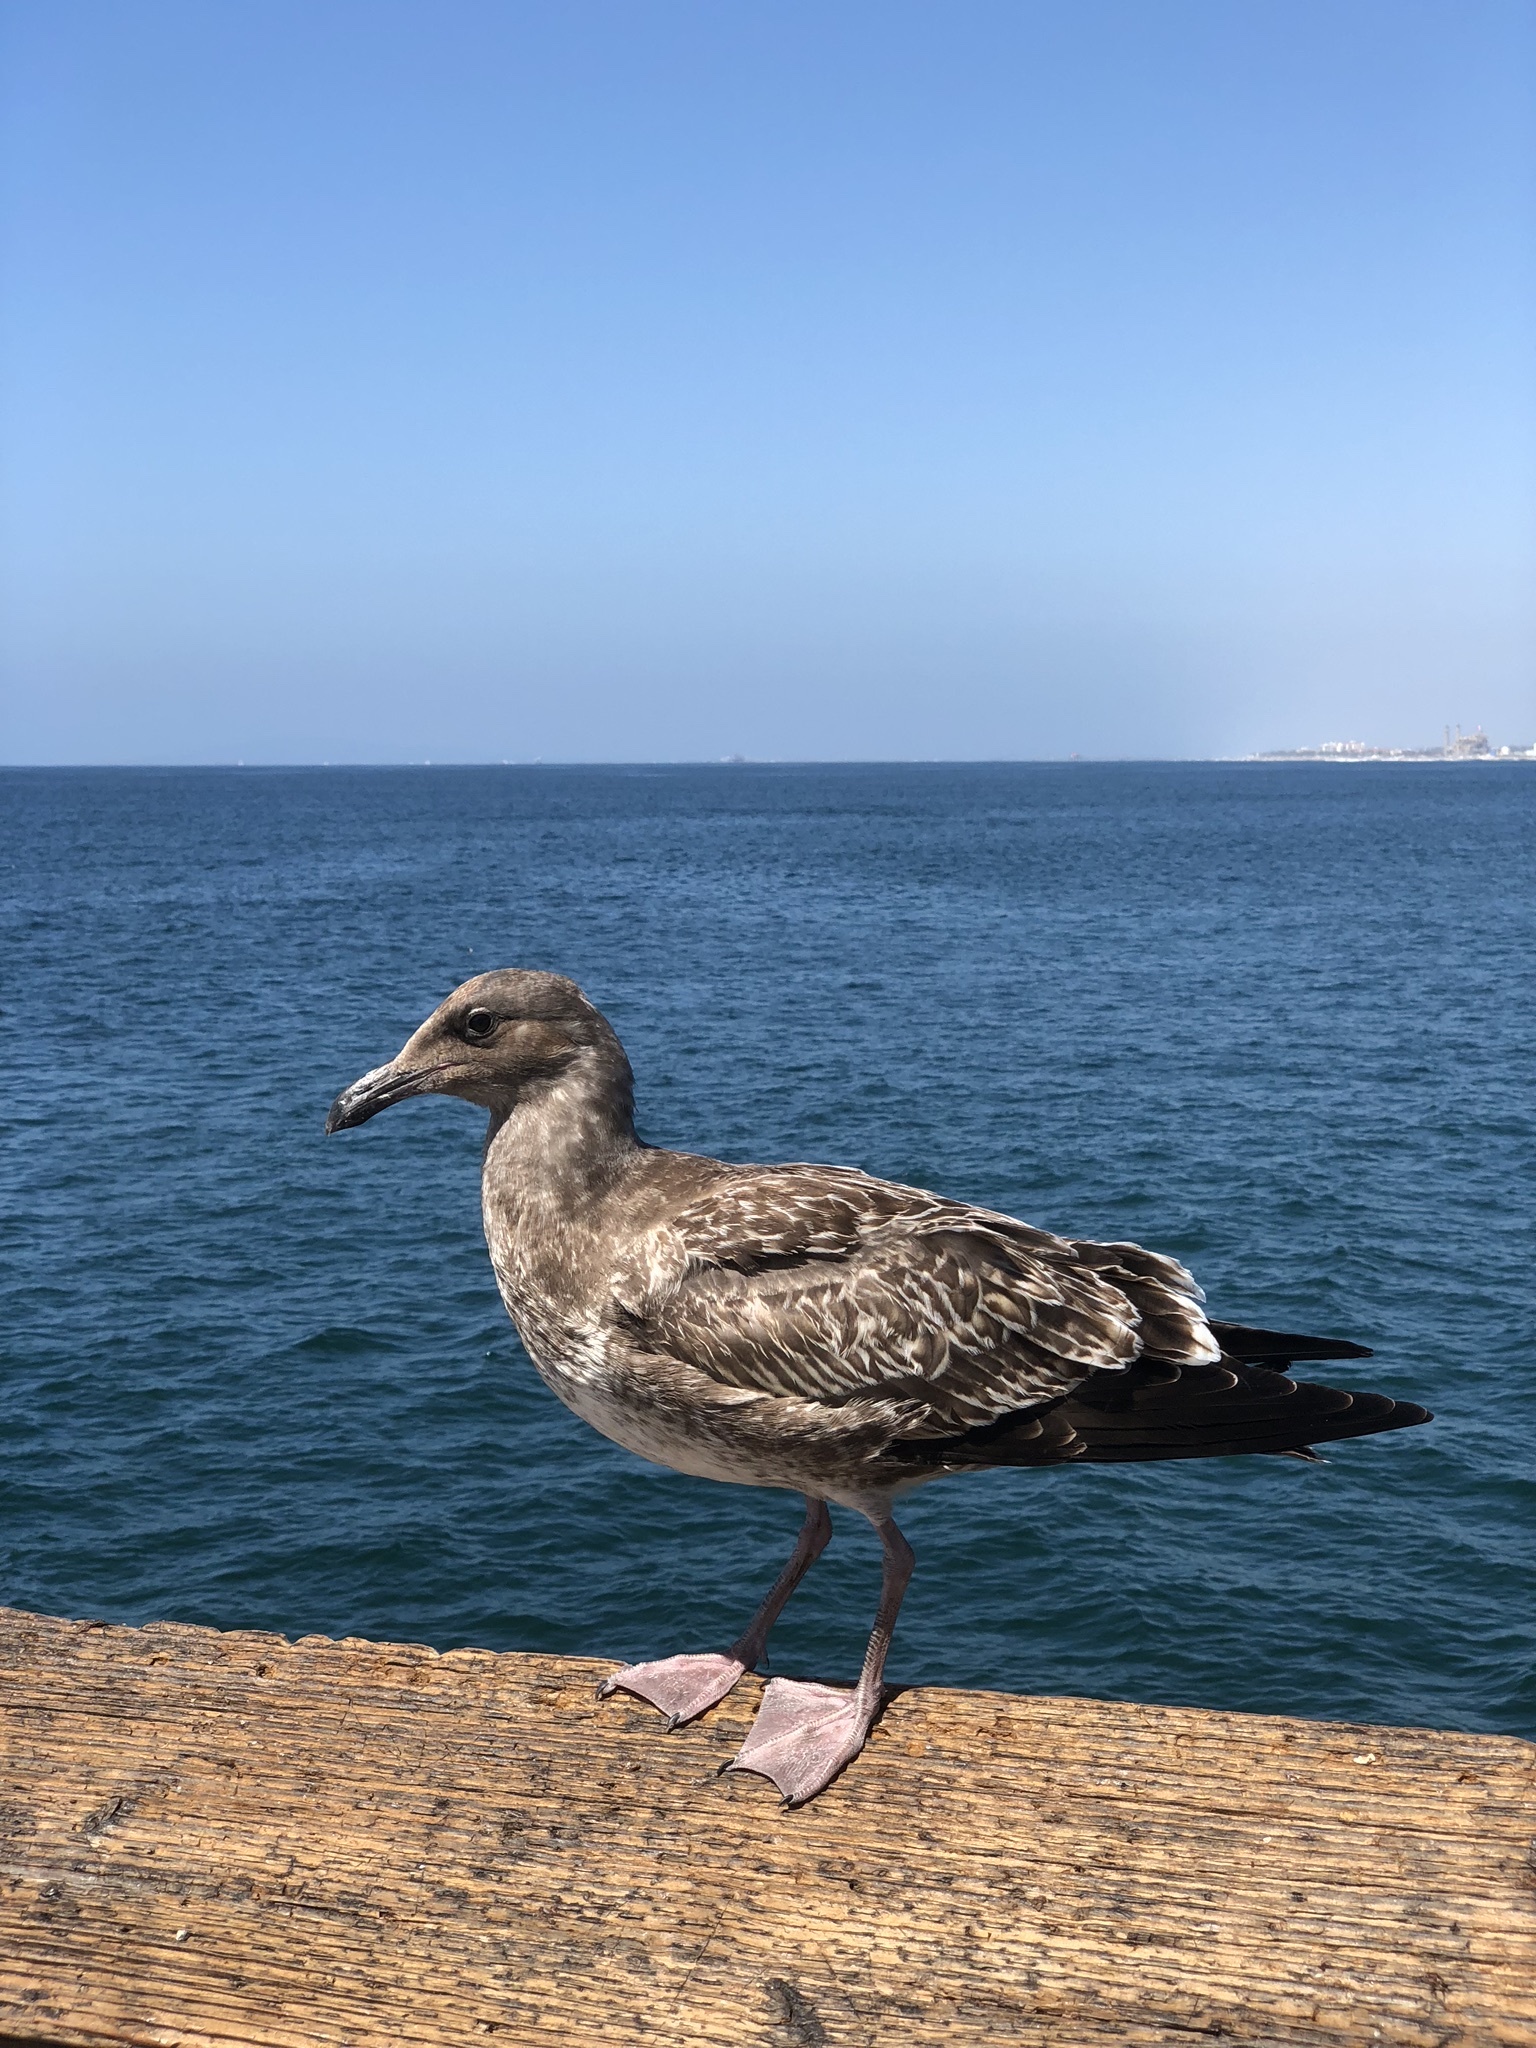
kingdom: Animalia
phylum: Chordata
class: Aves
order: Charadriiformes
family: Laridae
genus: Larus
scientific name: Larus occidentalis
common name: Western gull
